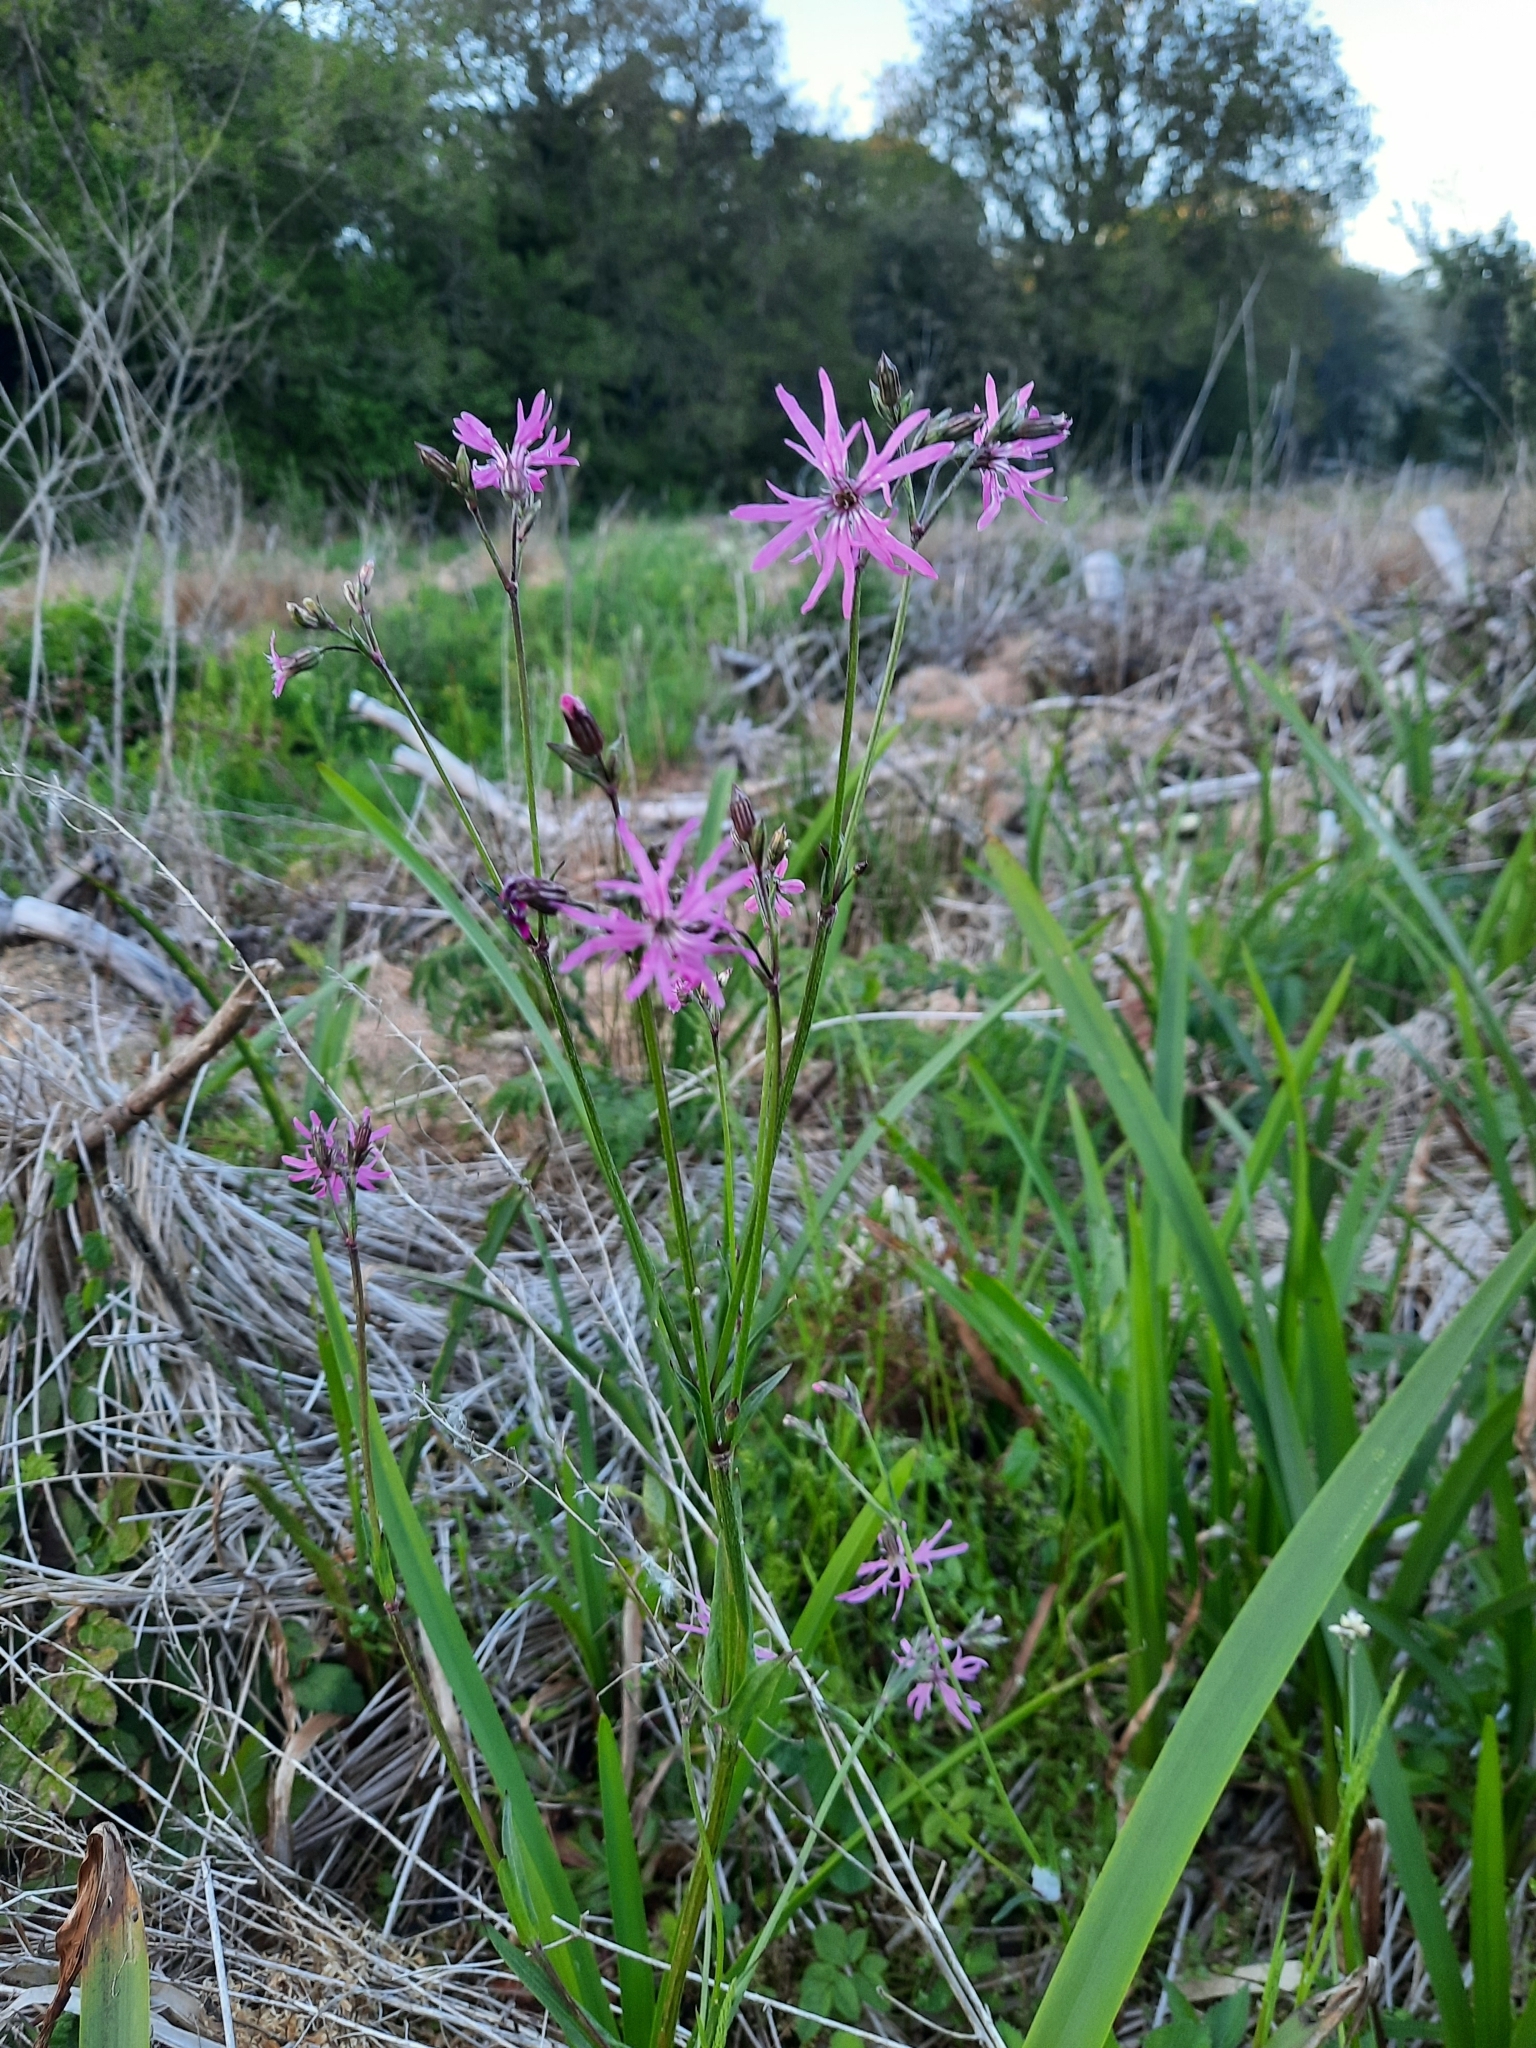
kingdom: Plantae
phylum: Tracheophyta
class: Magnoliopsida
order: Caryophyllales
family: Caryophyllaceae
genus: Silene
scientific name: Silene flos-cuculi
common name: Ragged-robin
